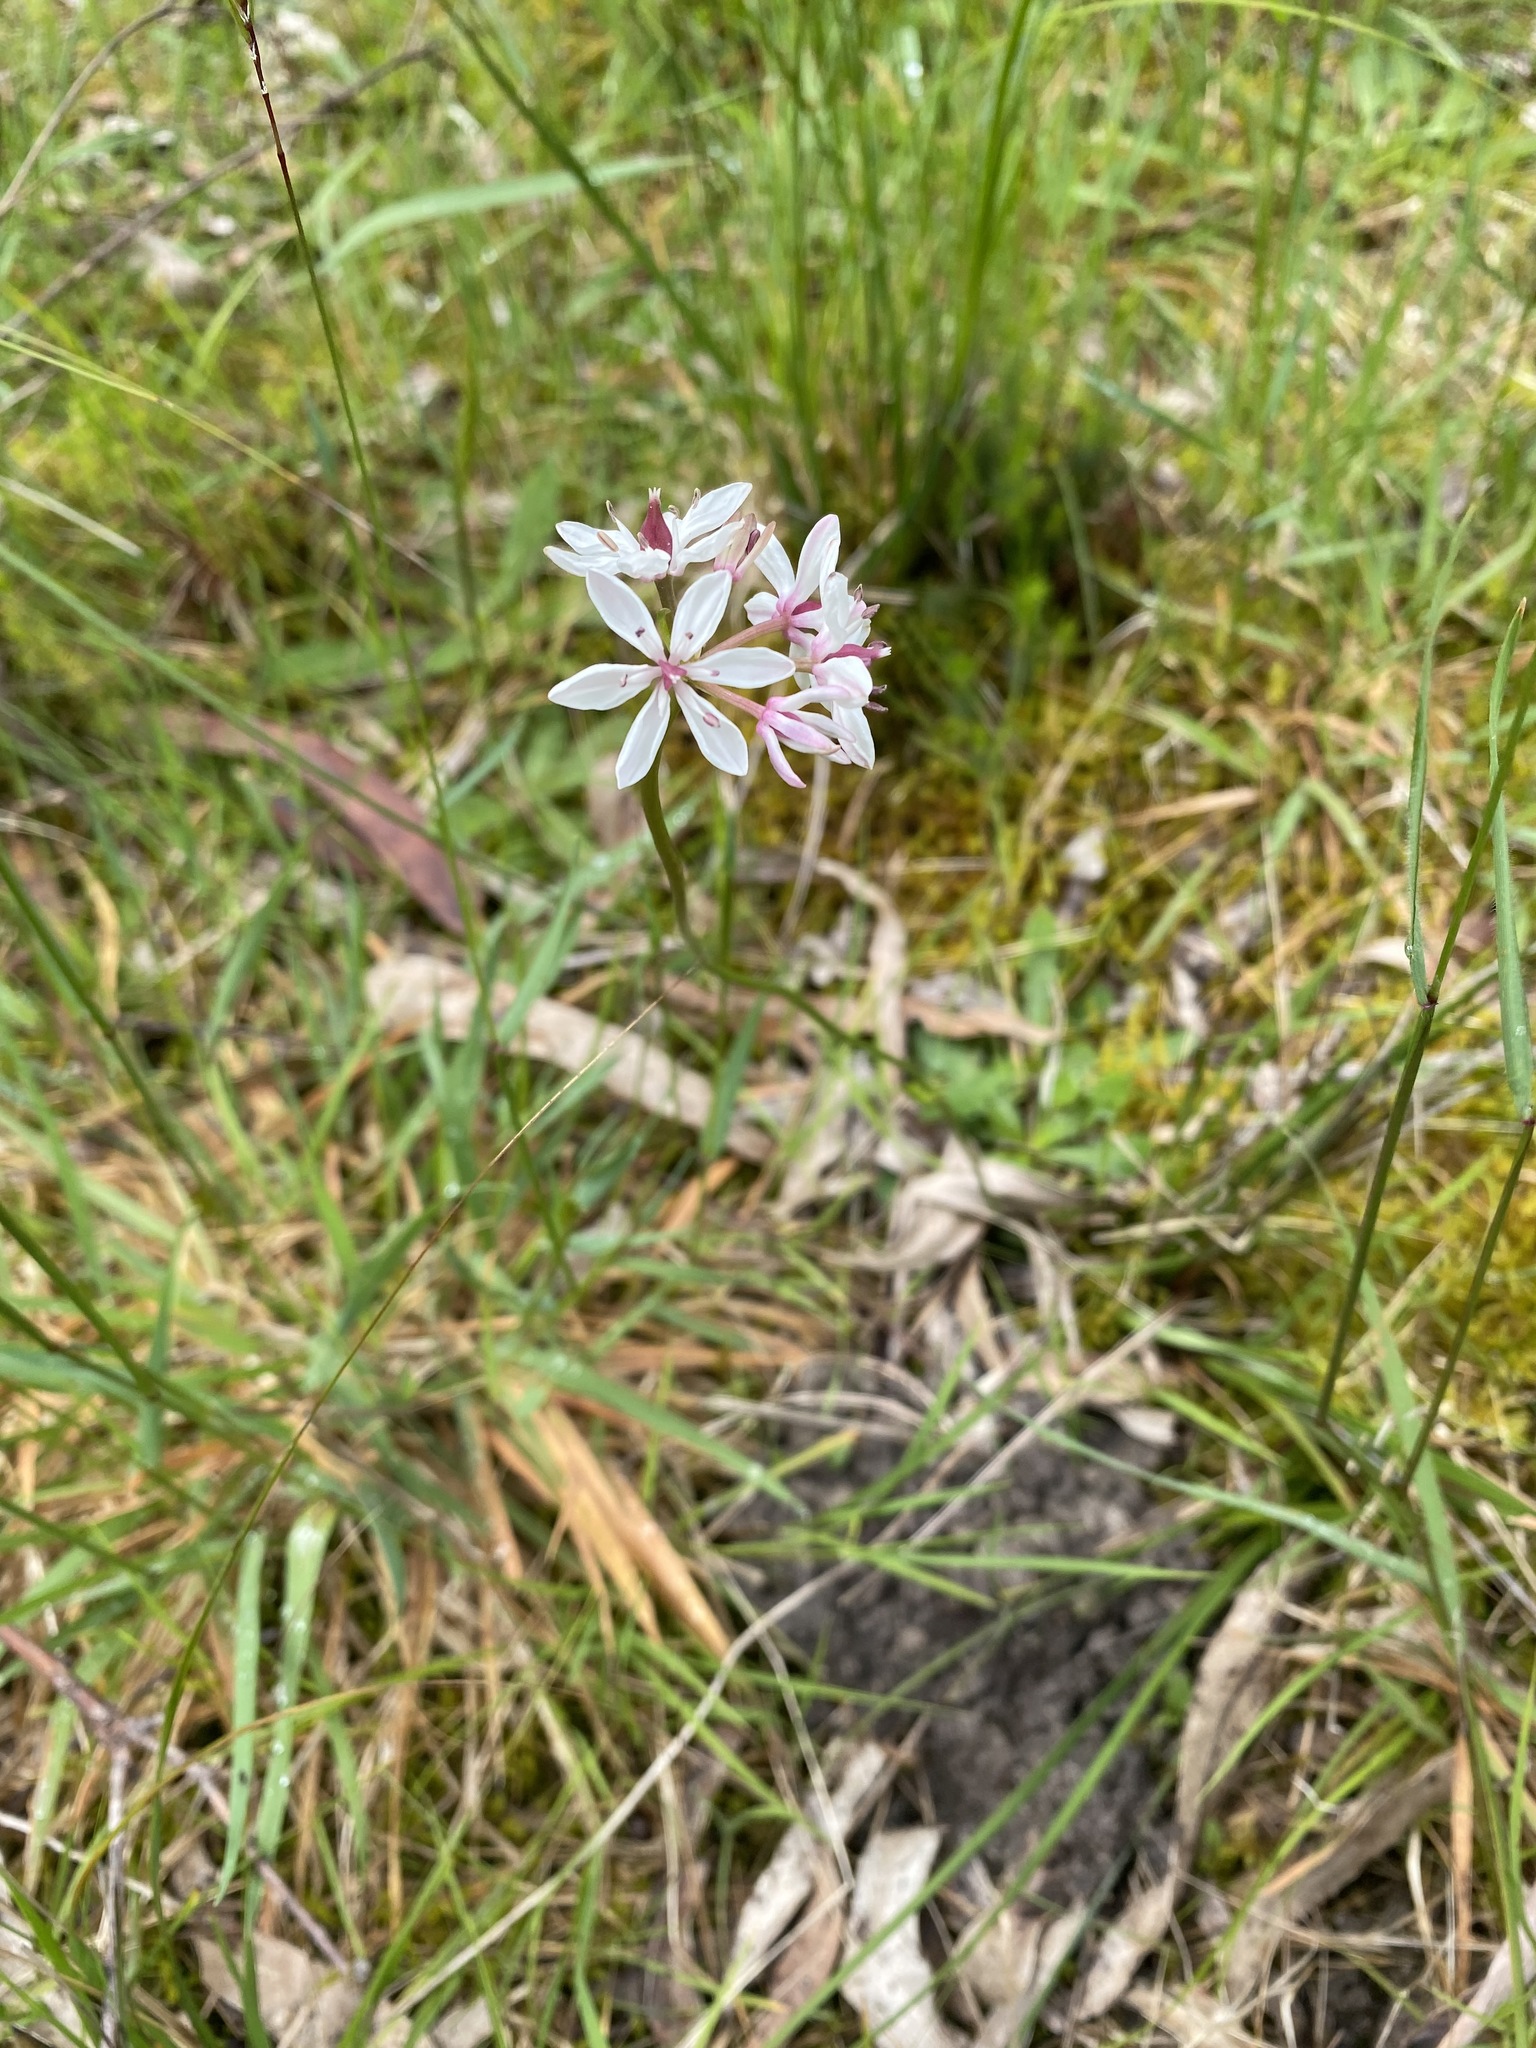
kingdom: Plantae
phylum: Tracheophyta
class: Liliopsida
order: Liliales
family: Colchicaceae
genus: Burchardia
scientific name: Burchardia umbellata
